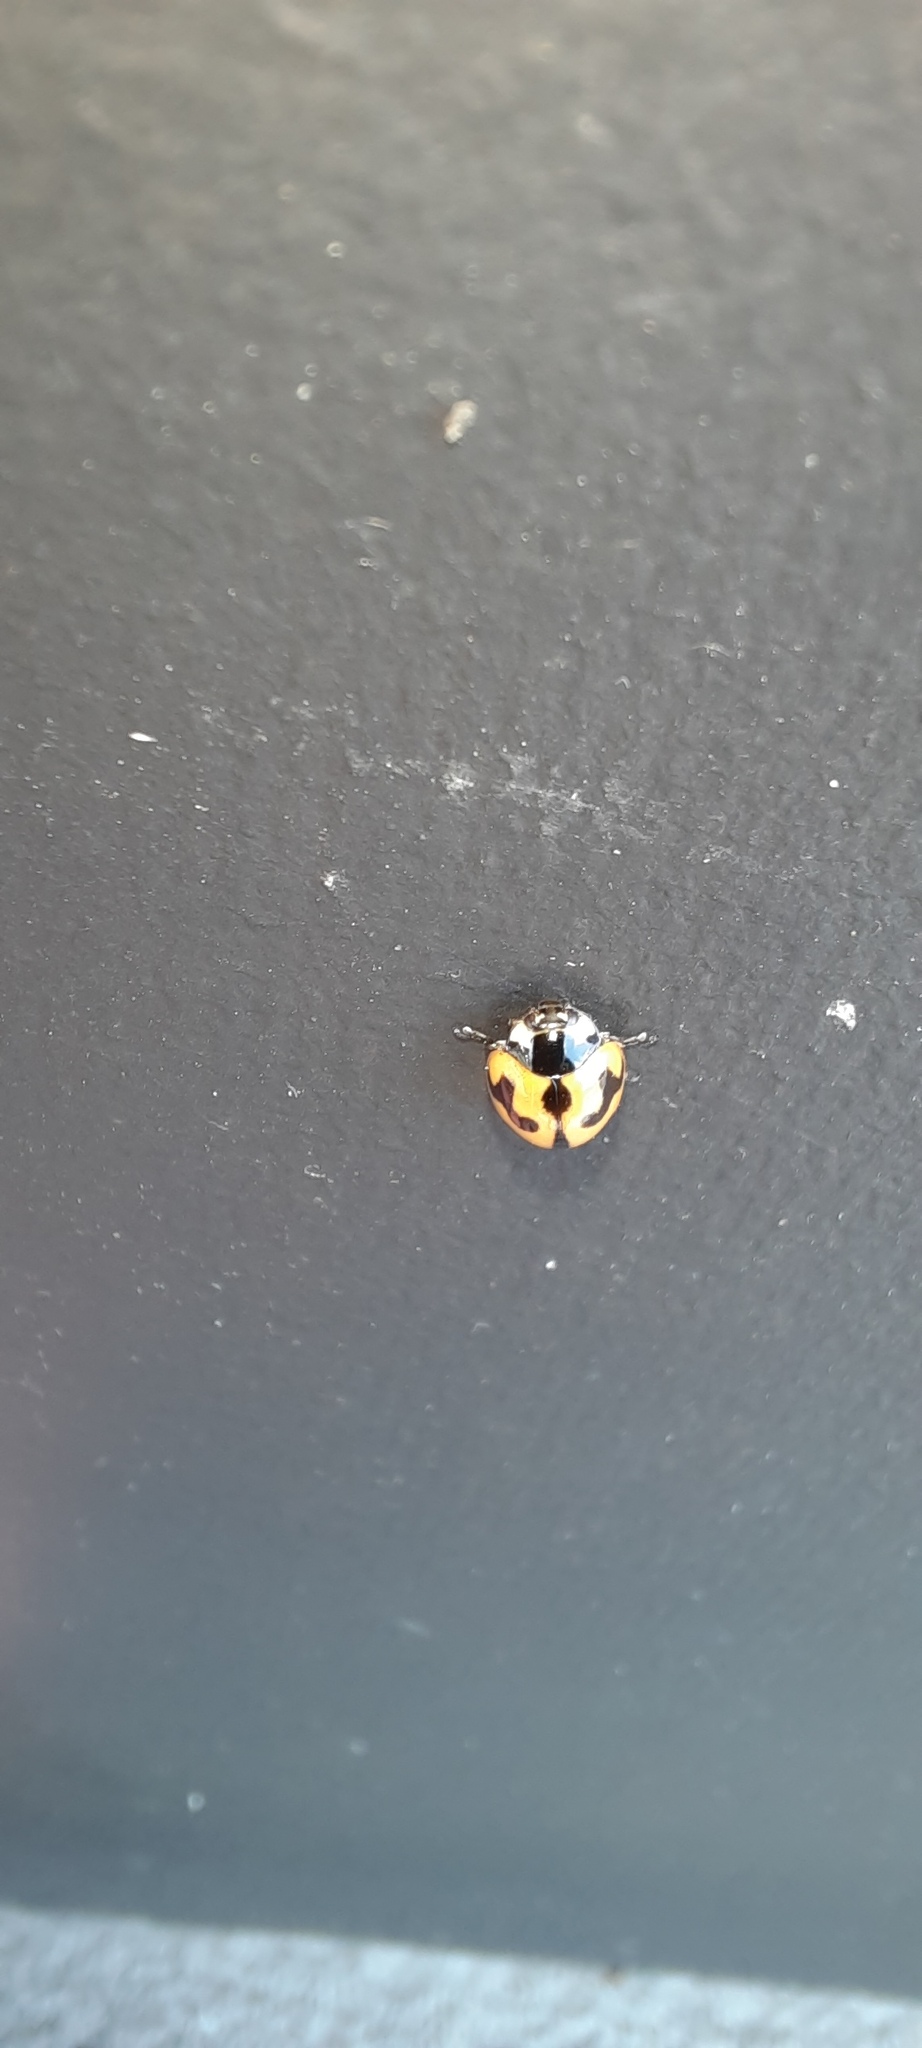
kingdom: Animalia
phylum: Arthropoda
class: Insecta
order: Coleoptera
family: Coccinellidae
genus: Coccinella
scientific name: Coccinella transversalis
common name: Transverse lady beetle
